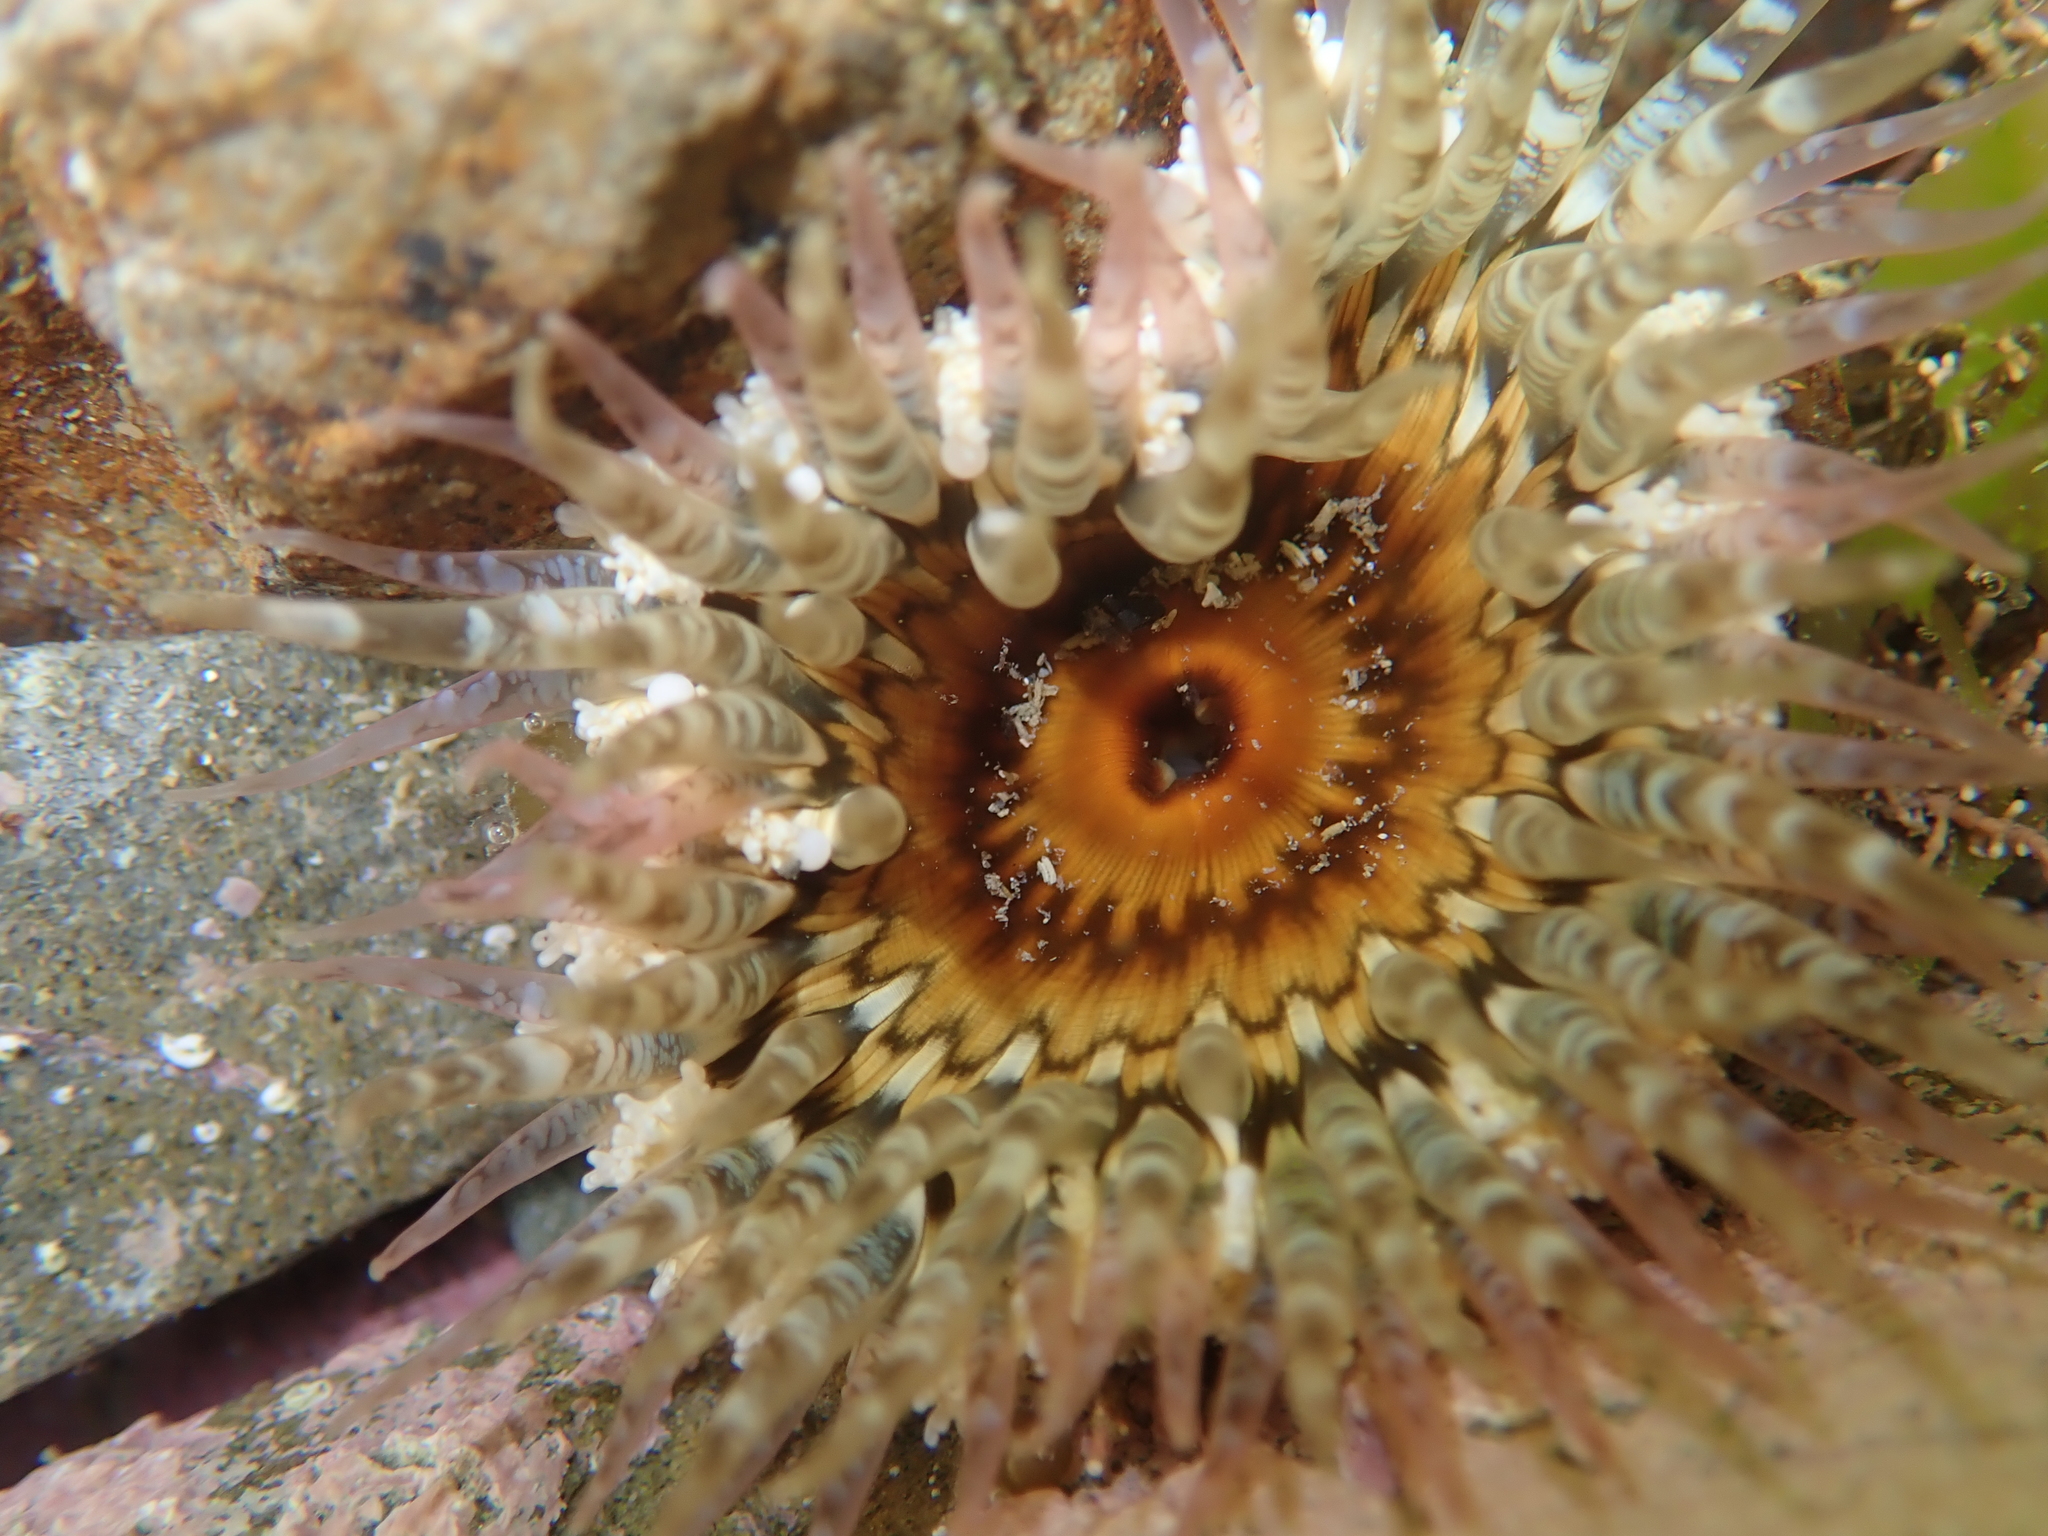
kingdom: Animalia
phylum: Cnidaria
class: Anthozoa
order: Actiniaria
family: Actiniidae
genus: Oulactis
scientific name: Oulactis muscosa
